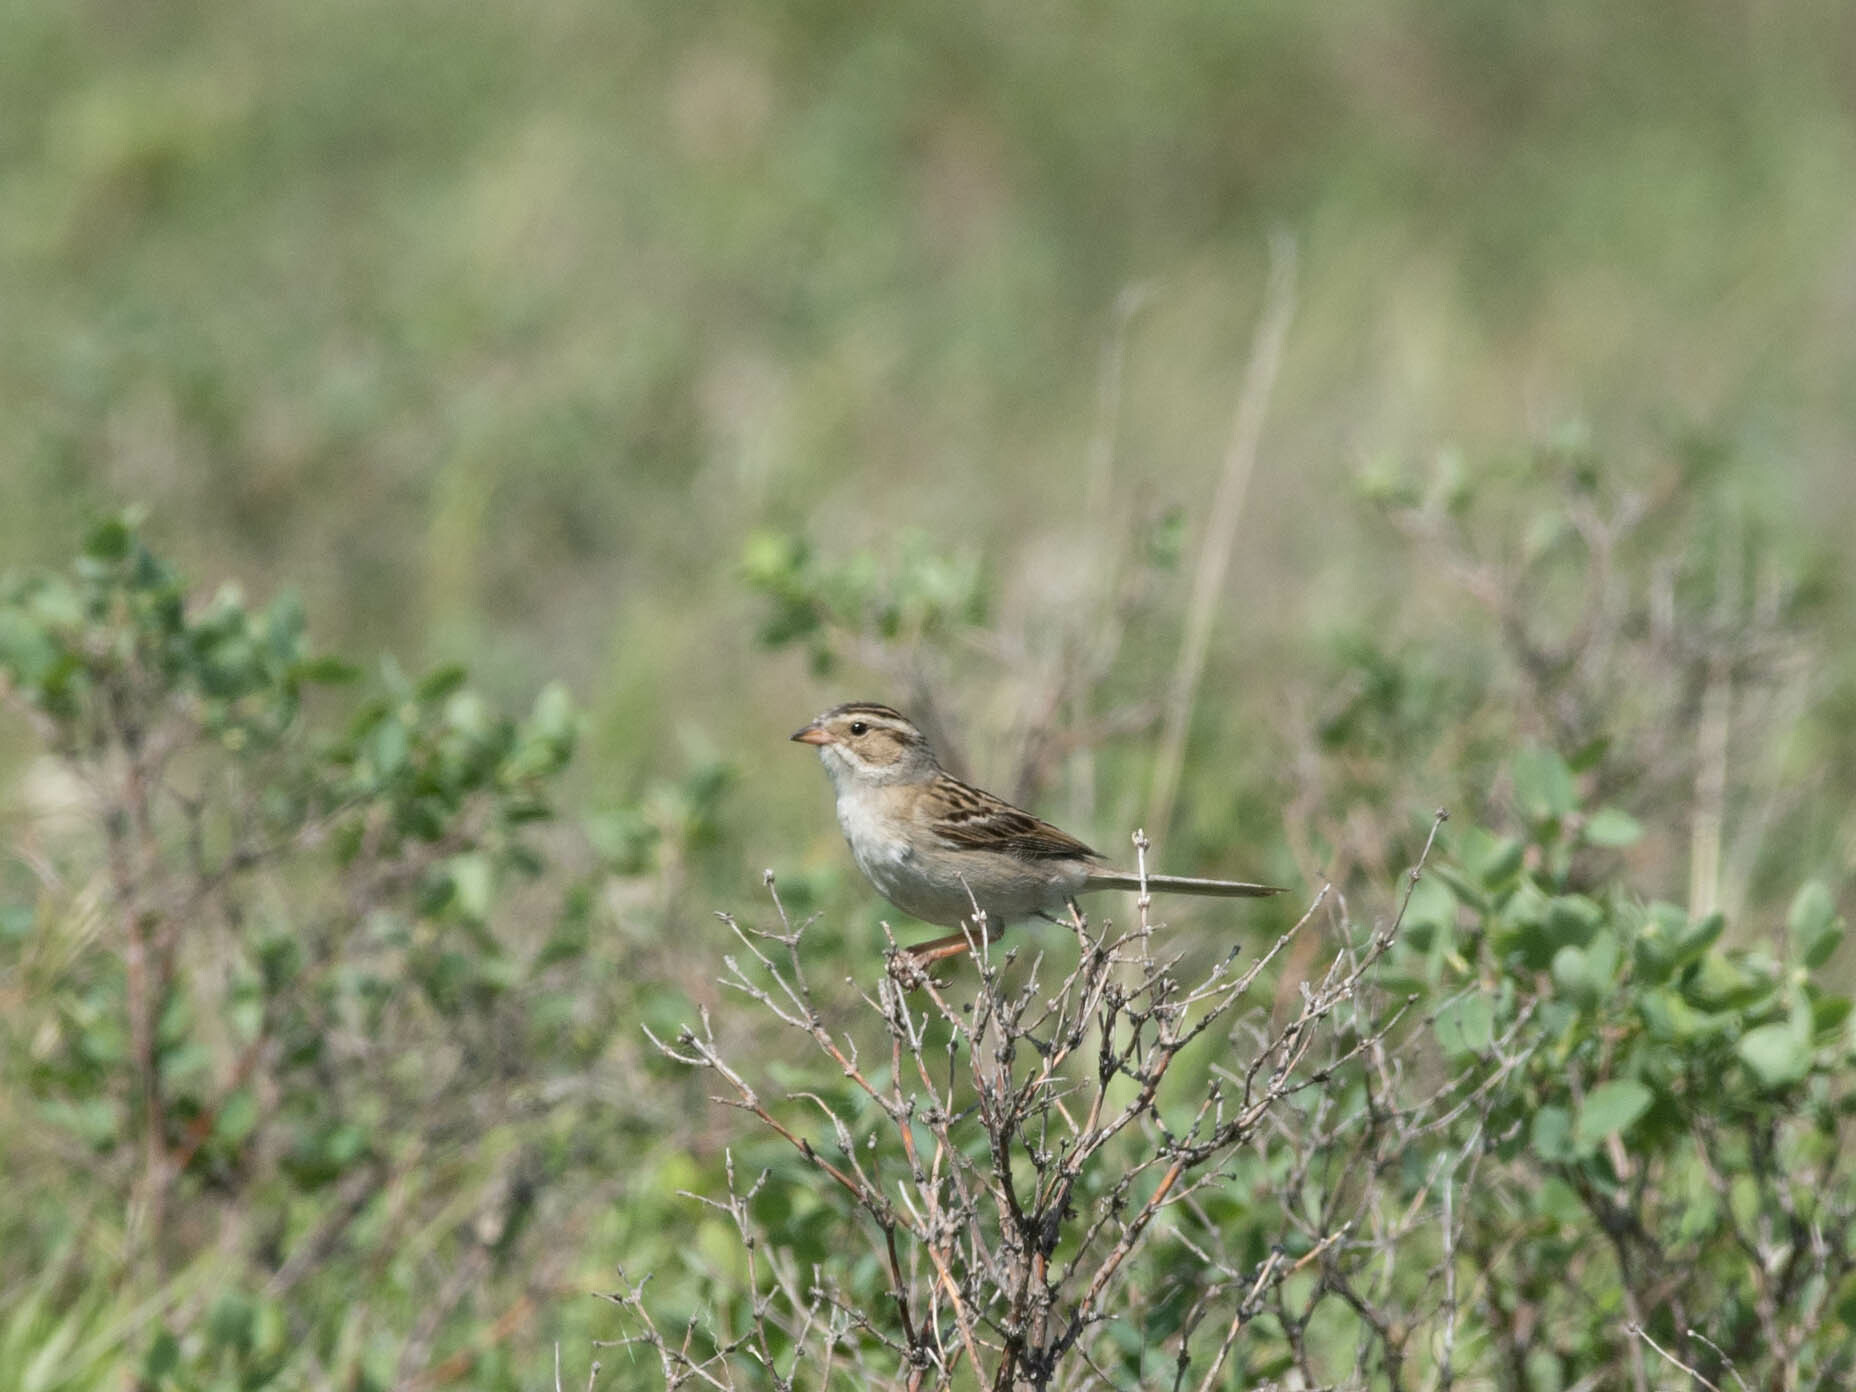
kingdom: Animalia
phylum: Chordata
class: Aves
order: Passeriformes
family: Passerellidae
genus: Spizella
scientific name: Spizella pallida
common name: Clay-colored sparrow
